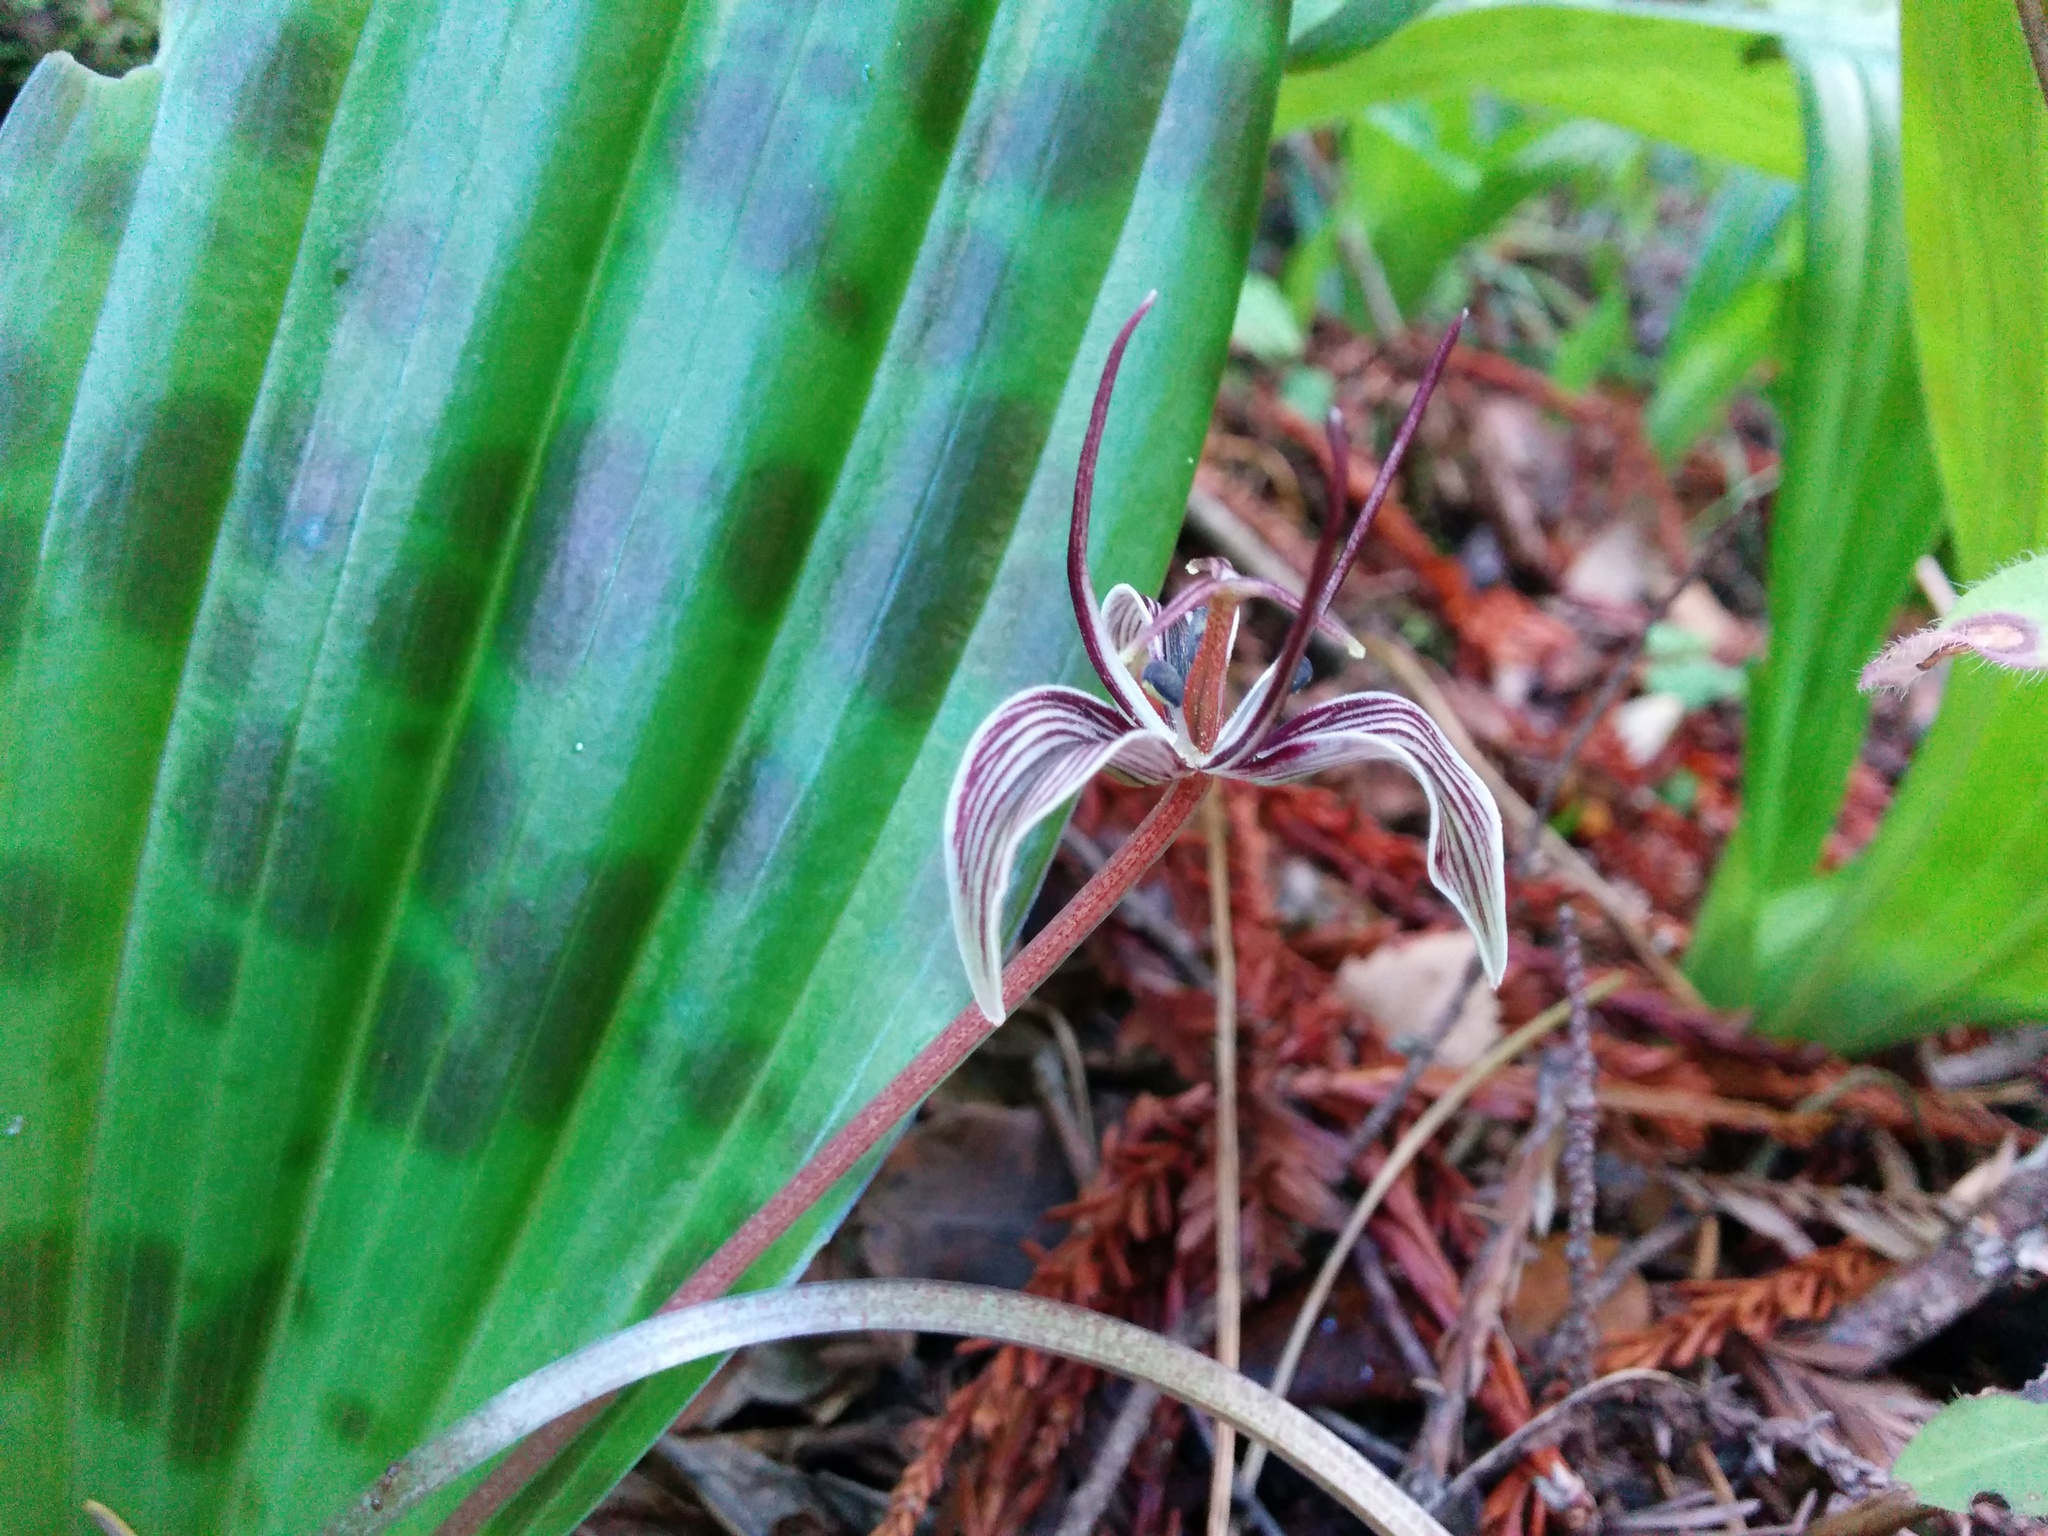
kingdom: Plantae
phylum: Tracheophyta
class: Liliopsida
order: Liliales
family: Liliaceae
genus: Scoliopus
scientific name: Scoliopus bigelovii
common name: Foetid adder's-tongue
